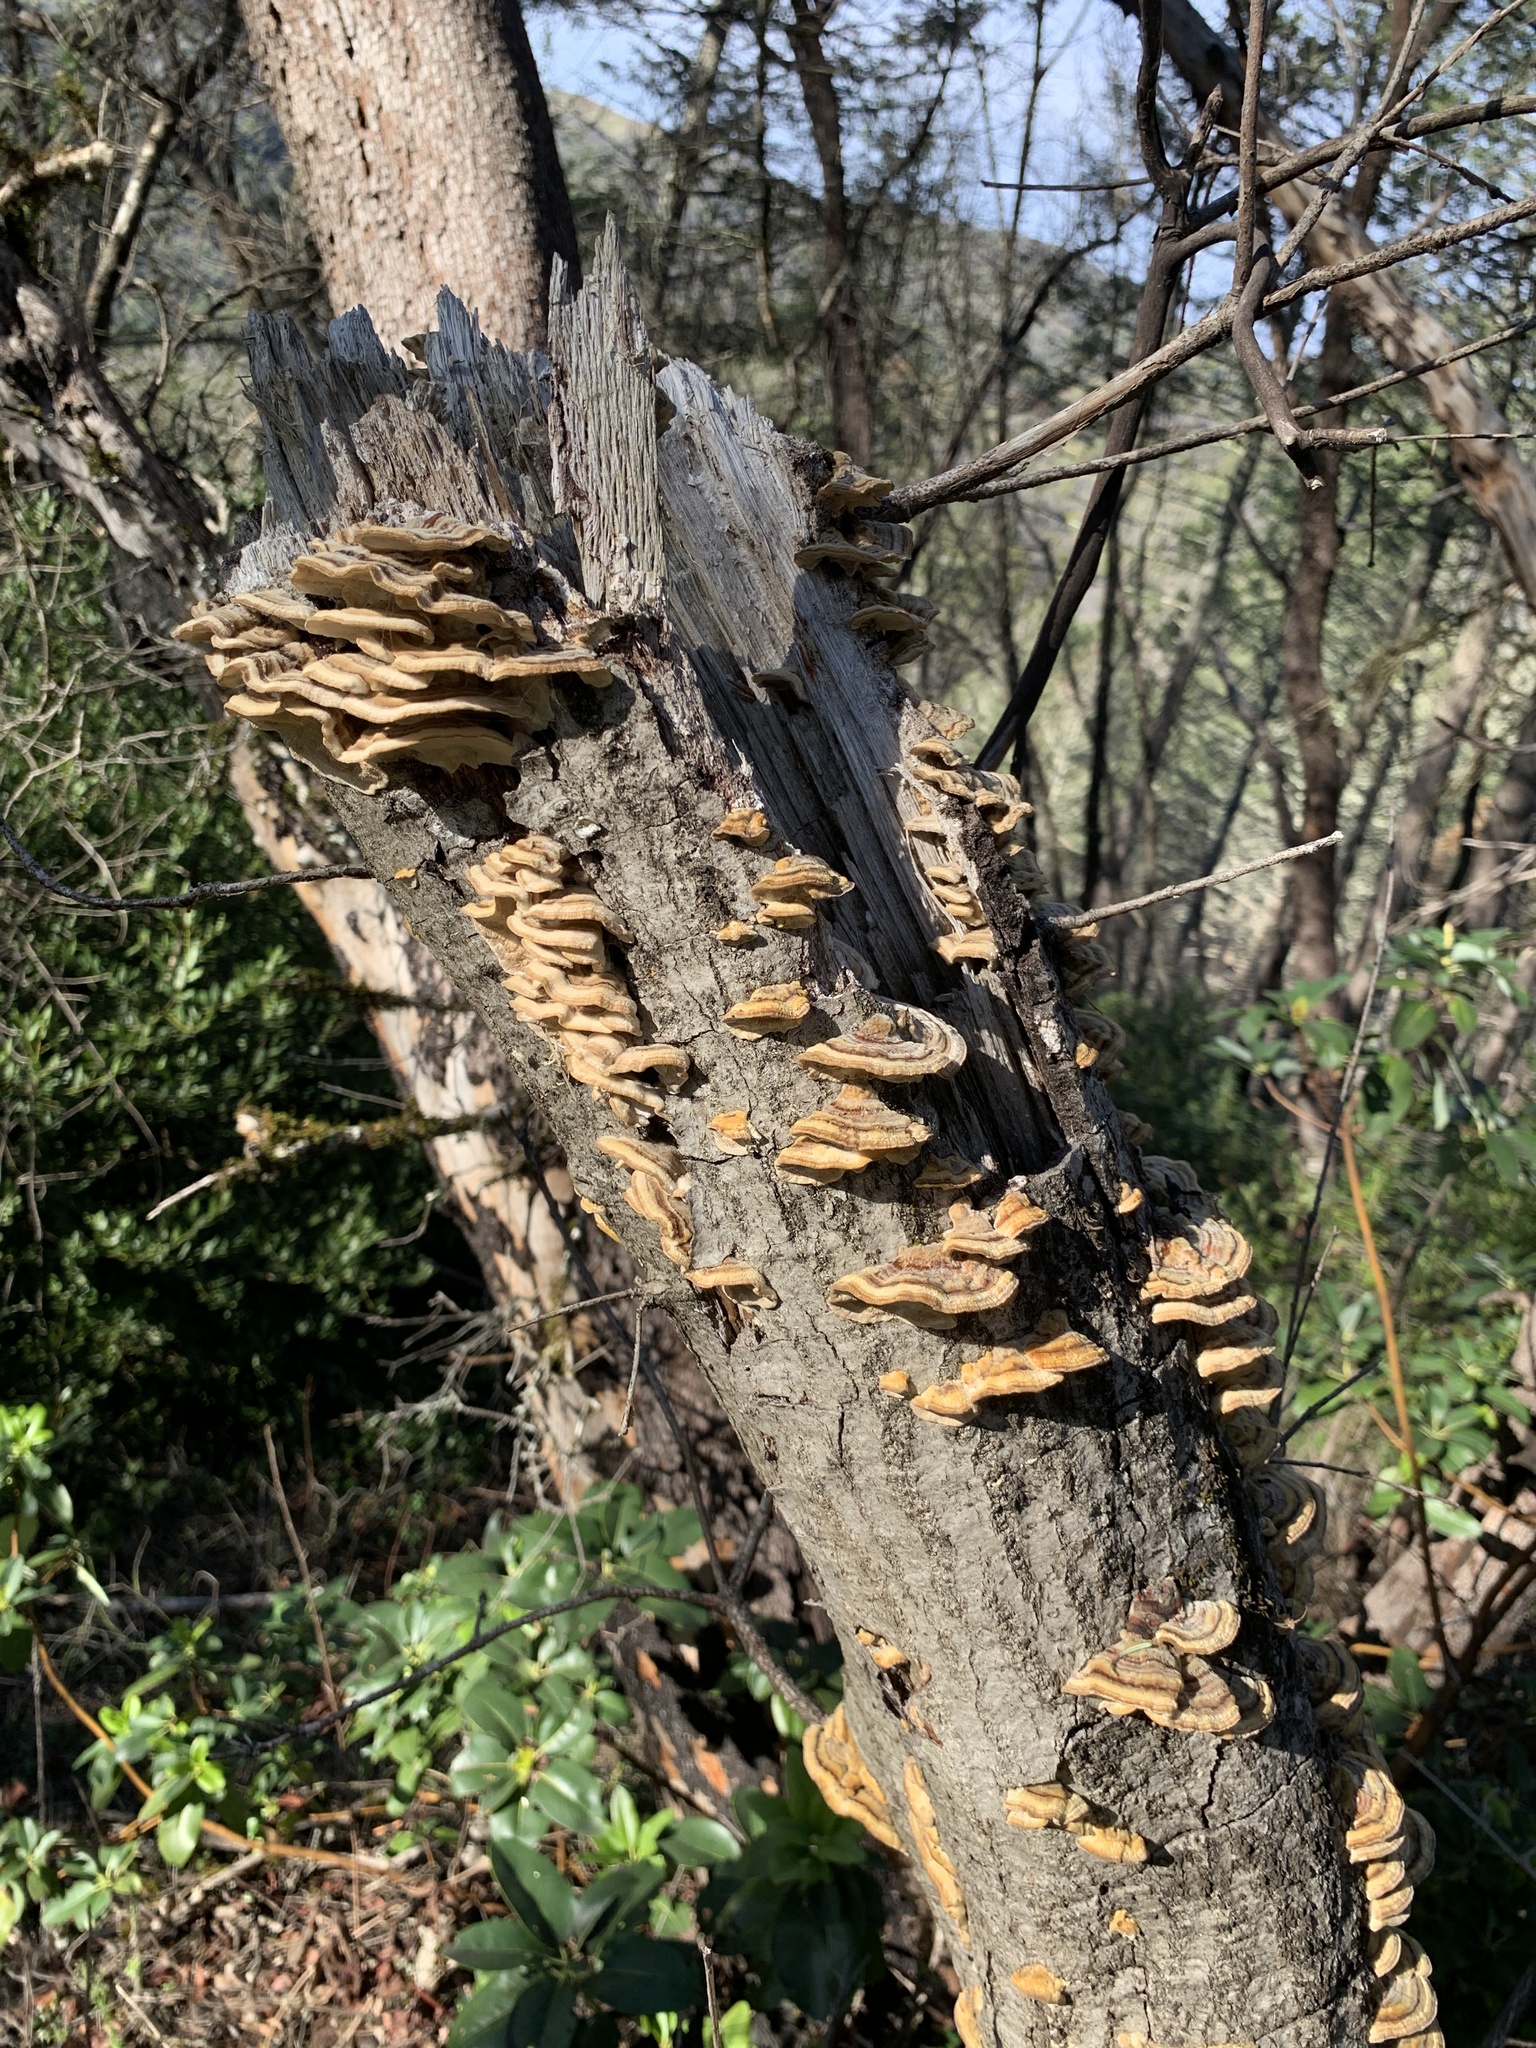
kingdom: Fungi
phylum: Basidiomycota
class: Agaricomycetes
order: Polyporales
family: Polyporaceae
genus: Trametes
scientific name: Trametes versicolor
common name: Turkeytail
